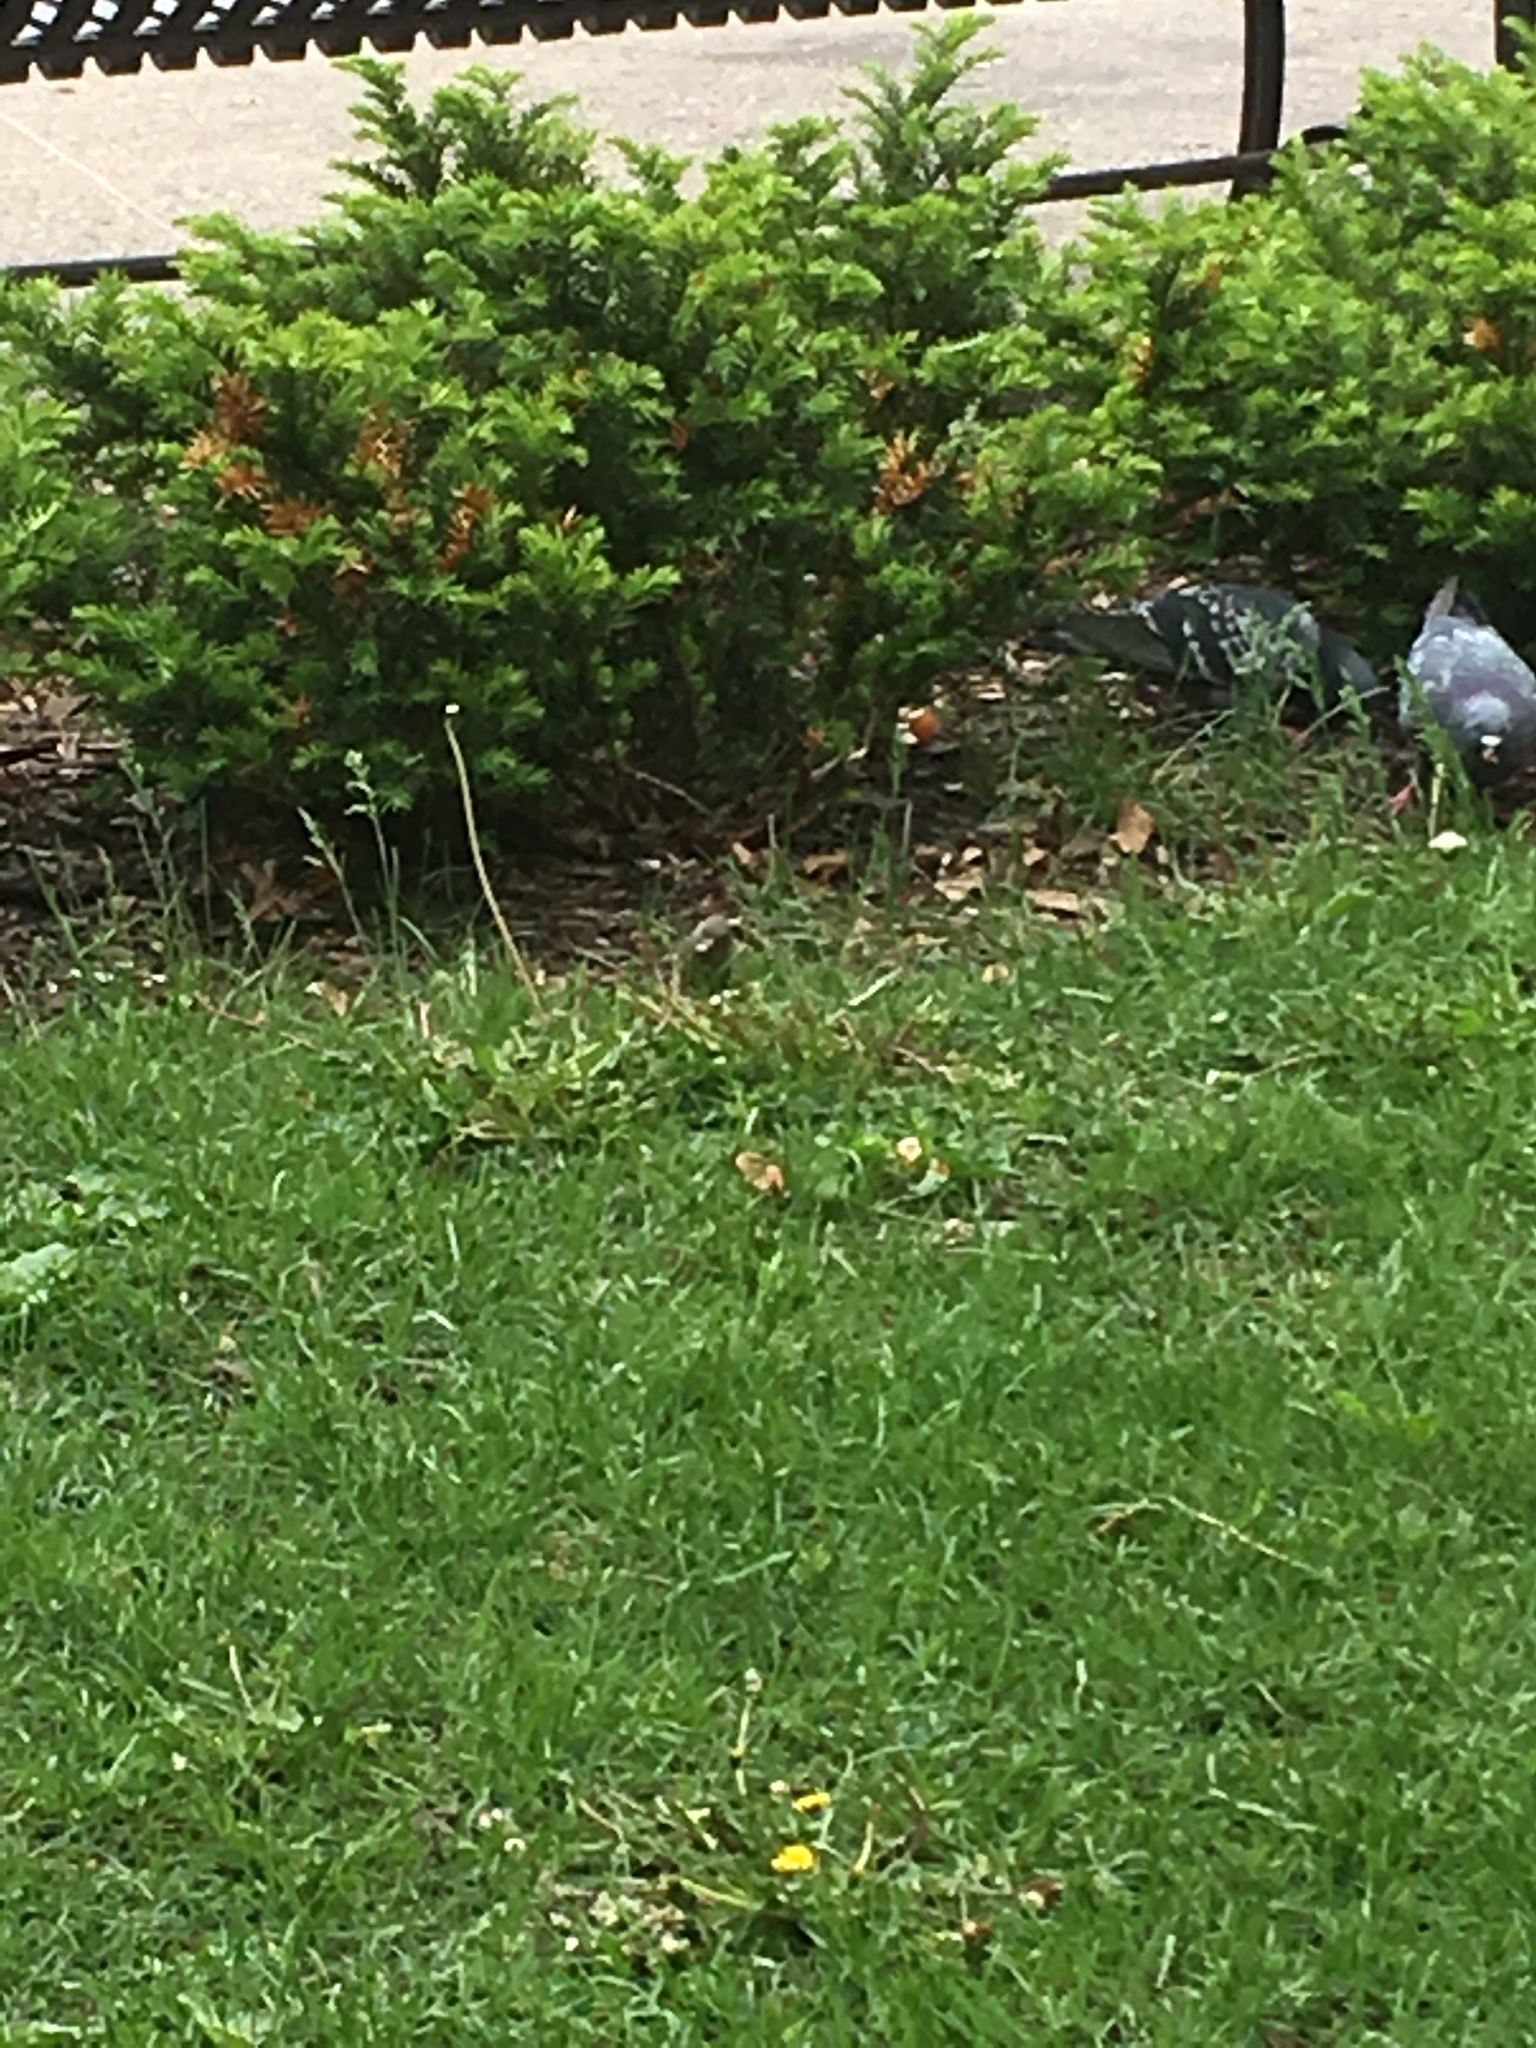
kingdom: Animalia
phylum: Chordata
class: Aves
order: Columbiformes
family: Columbidae
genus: Columba
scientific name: Columba livia
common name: Rock pigeon
